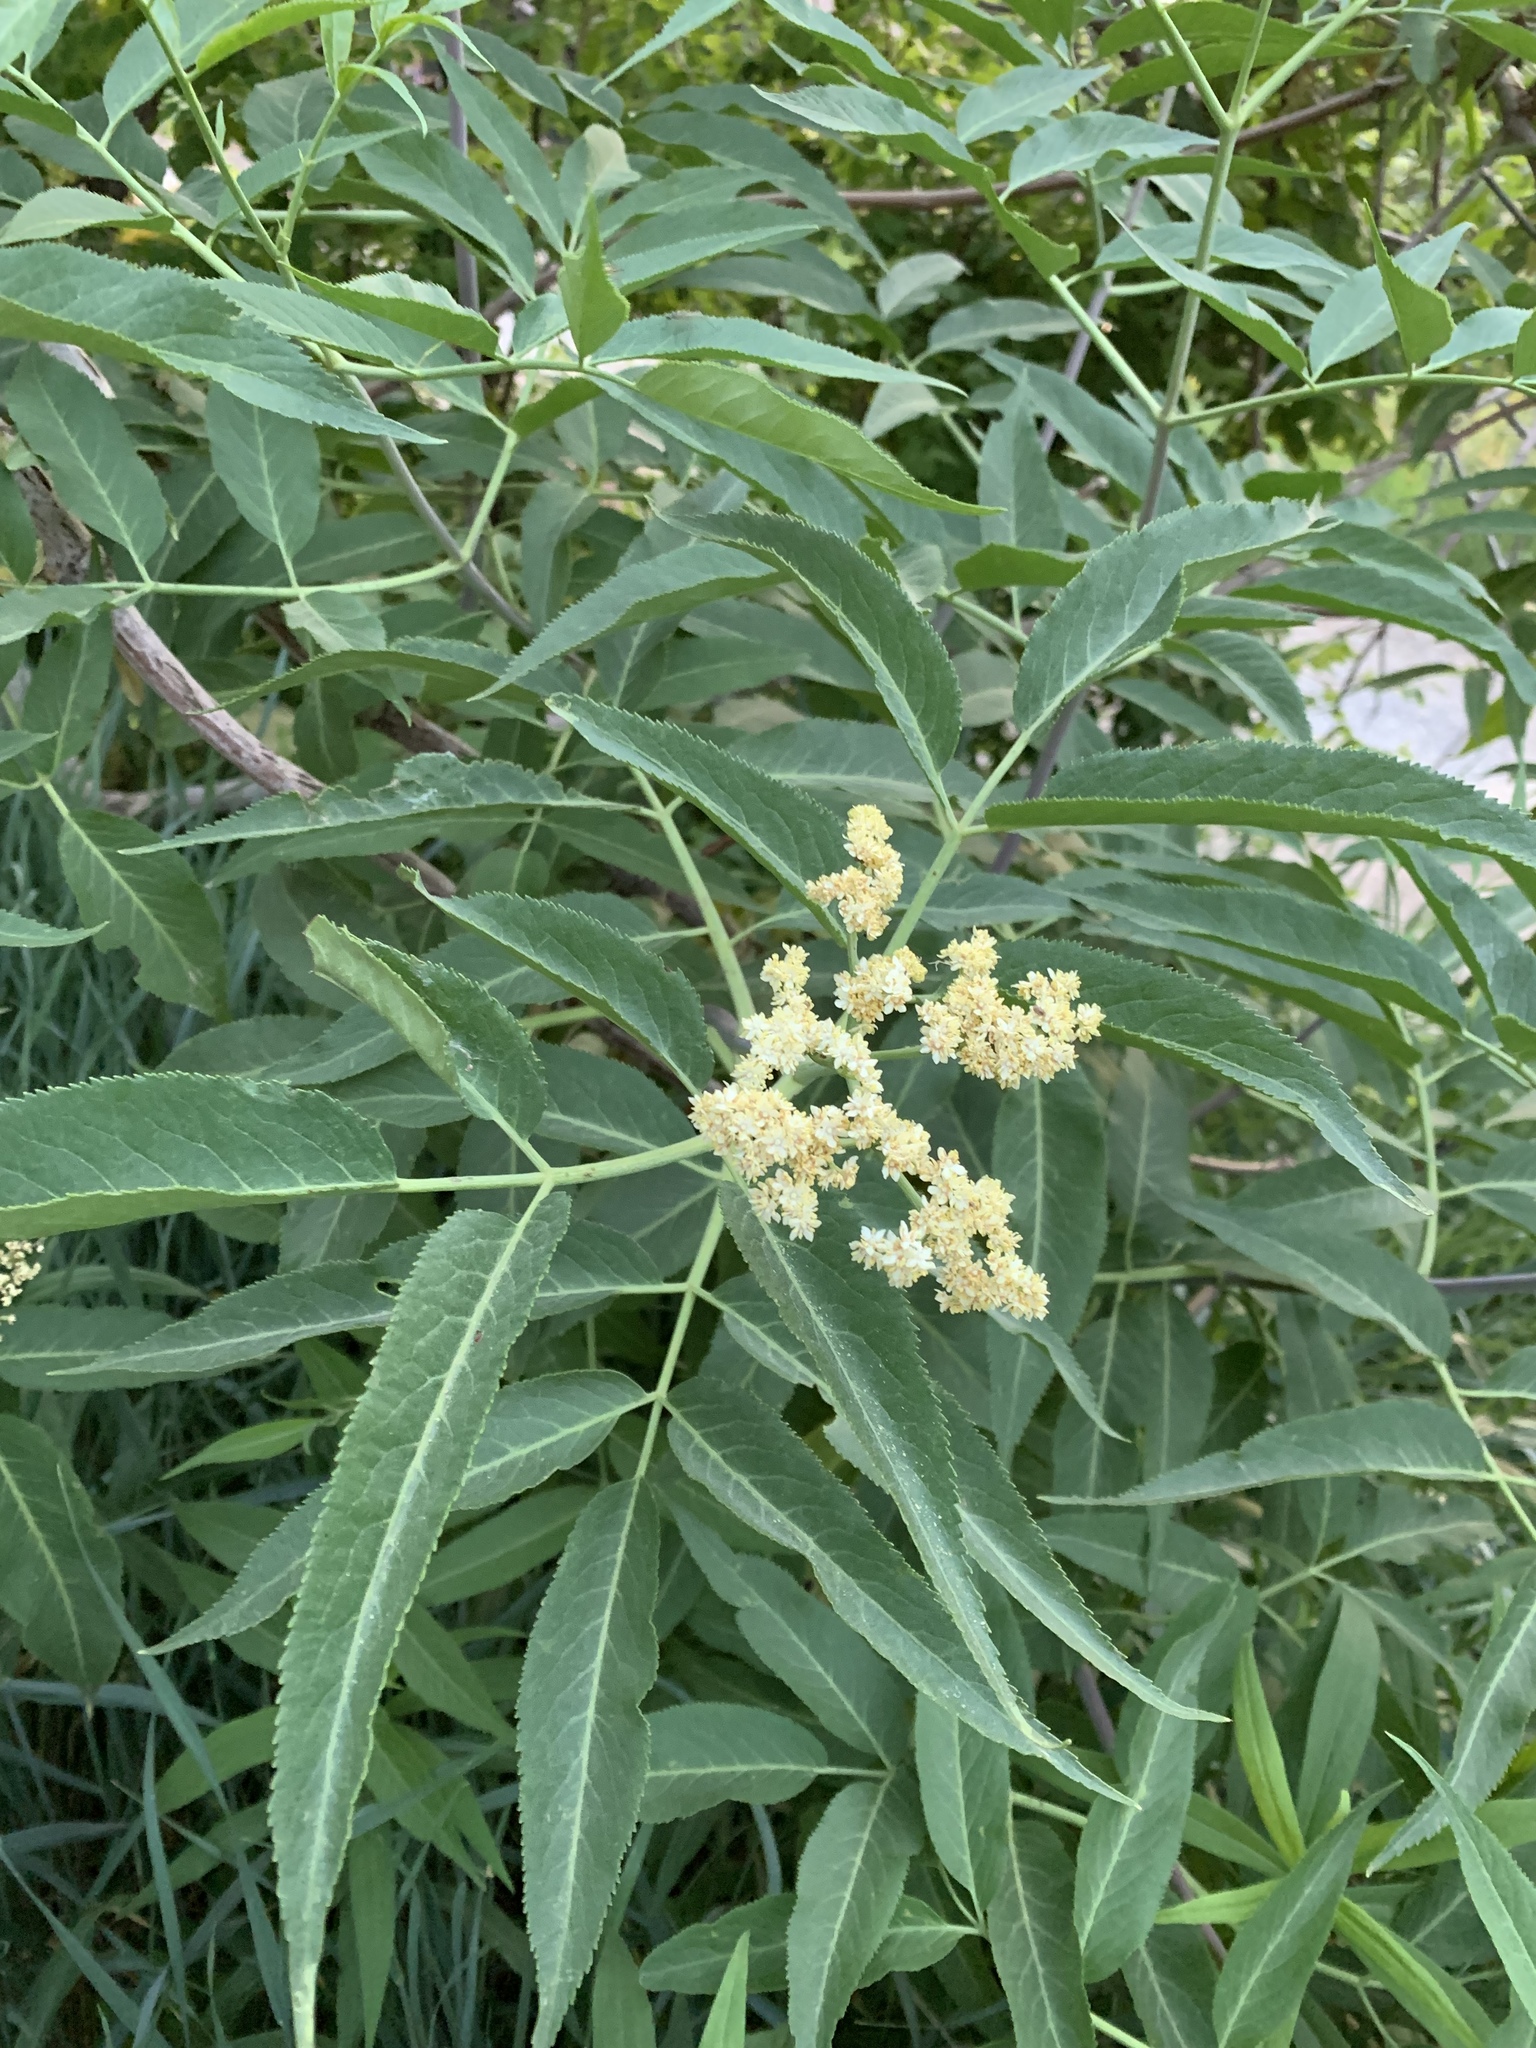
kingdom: Plantae
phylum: Tracheophyta
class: Magnoliopsida
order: Dipsacales
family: Viburnaceae
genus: Sambucus
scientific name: Sambucus cerulea
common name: Blue elder
